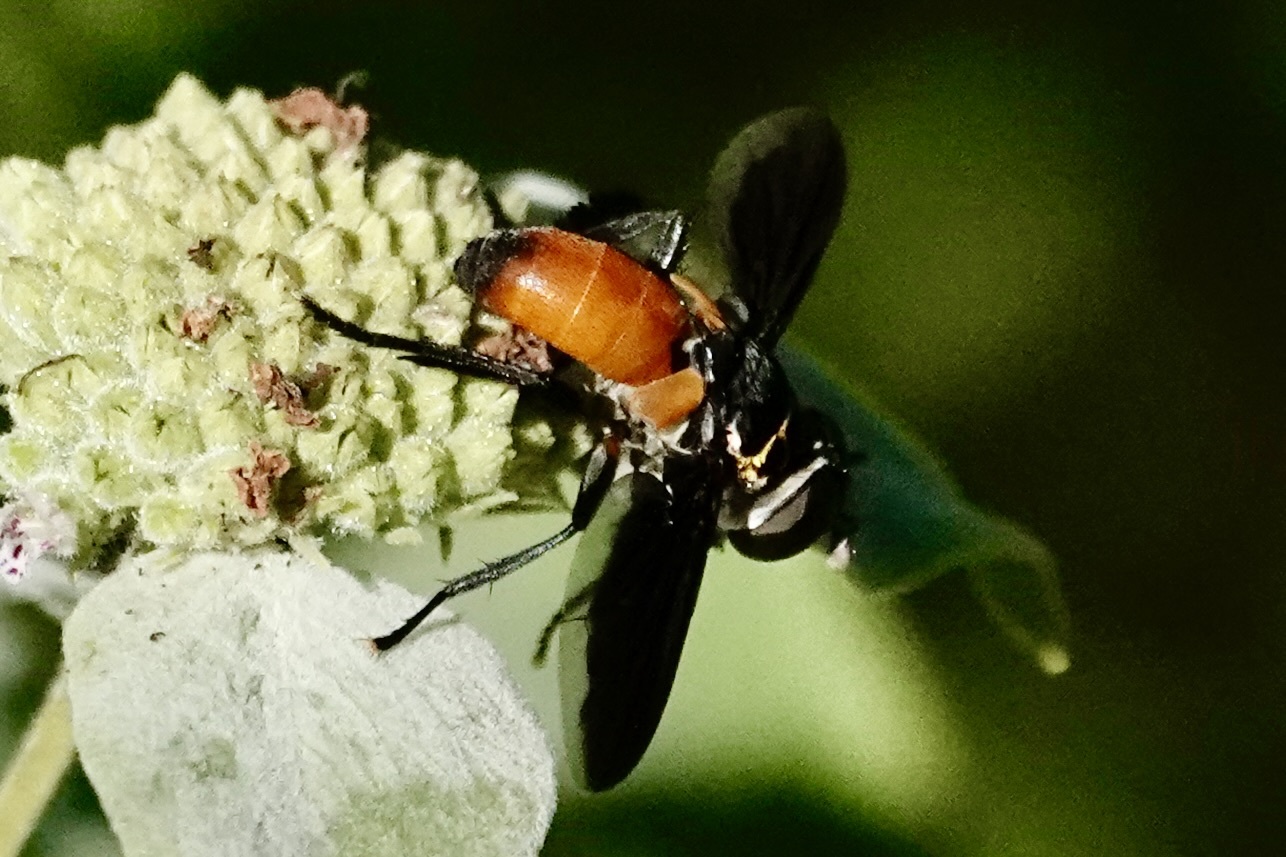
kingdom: Animalia
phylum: Arthropoda
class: Insecta
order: Diptera
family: Tachinidae
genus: Trichopoda
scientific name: Trichopoda pennipes
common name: Tachinid fly
